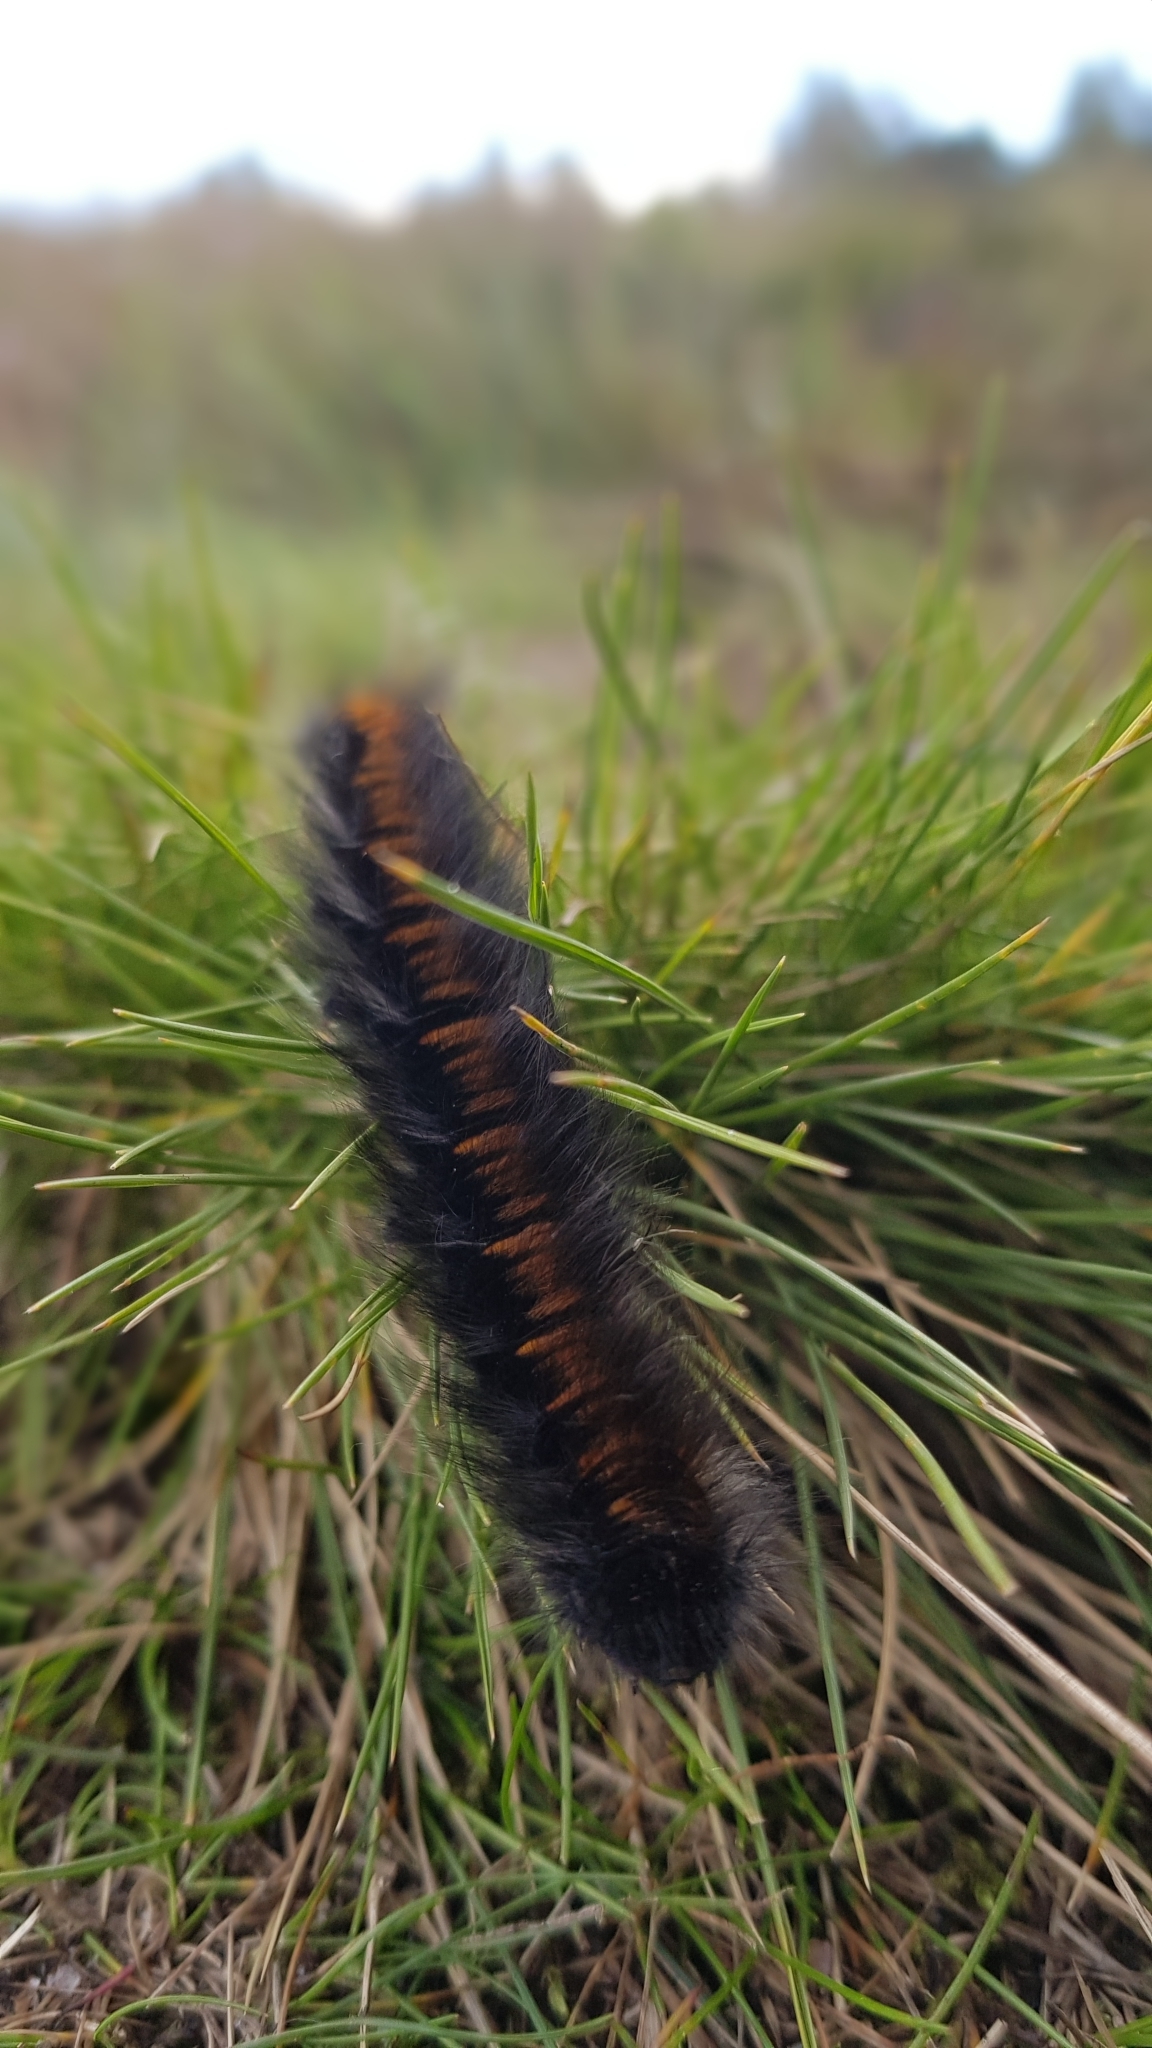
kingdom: Animalia
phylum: Arthropoda
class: Insecta
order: Lepidoptera
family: Lasiocampidae
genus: Macrothylacia
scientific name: Macrothylacia rubi
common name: Fox moth
